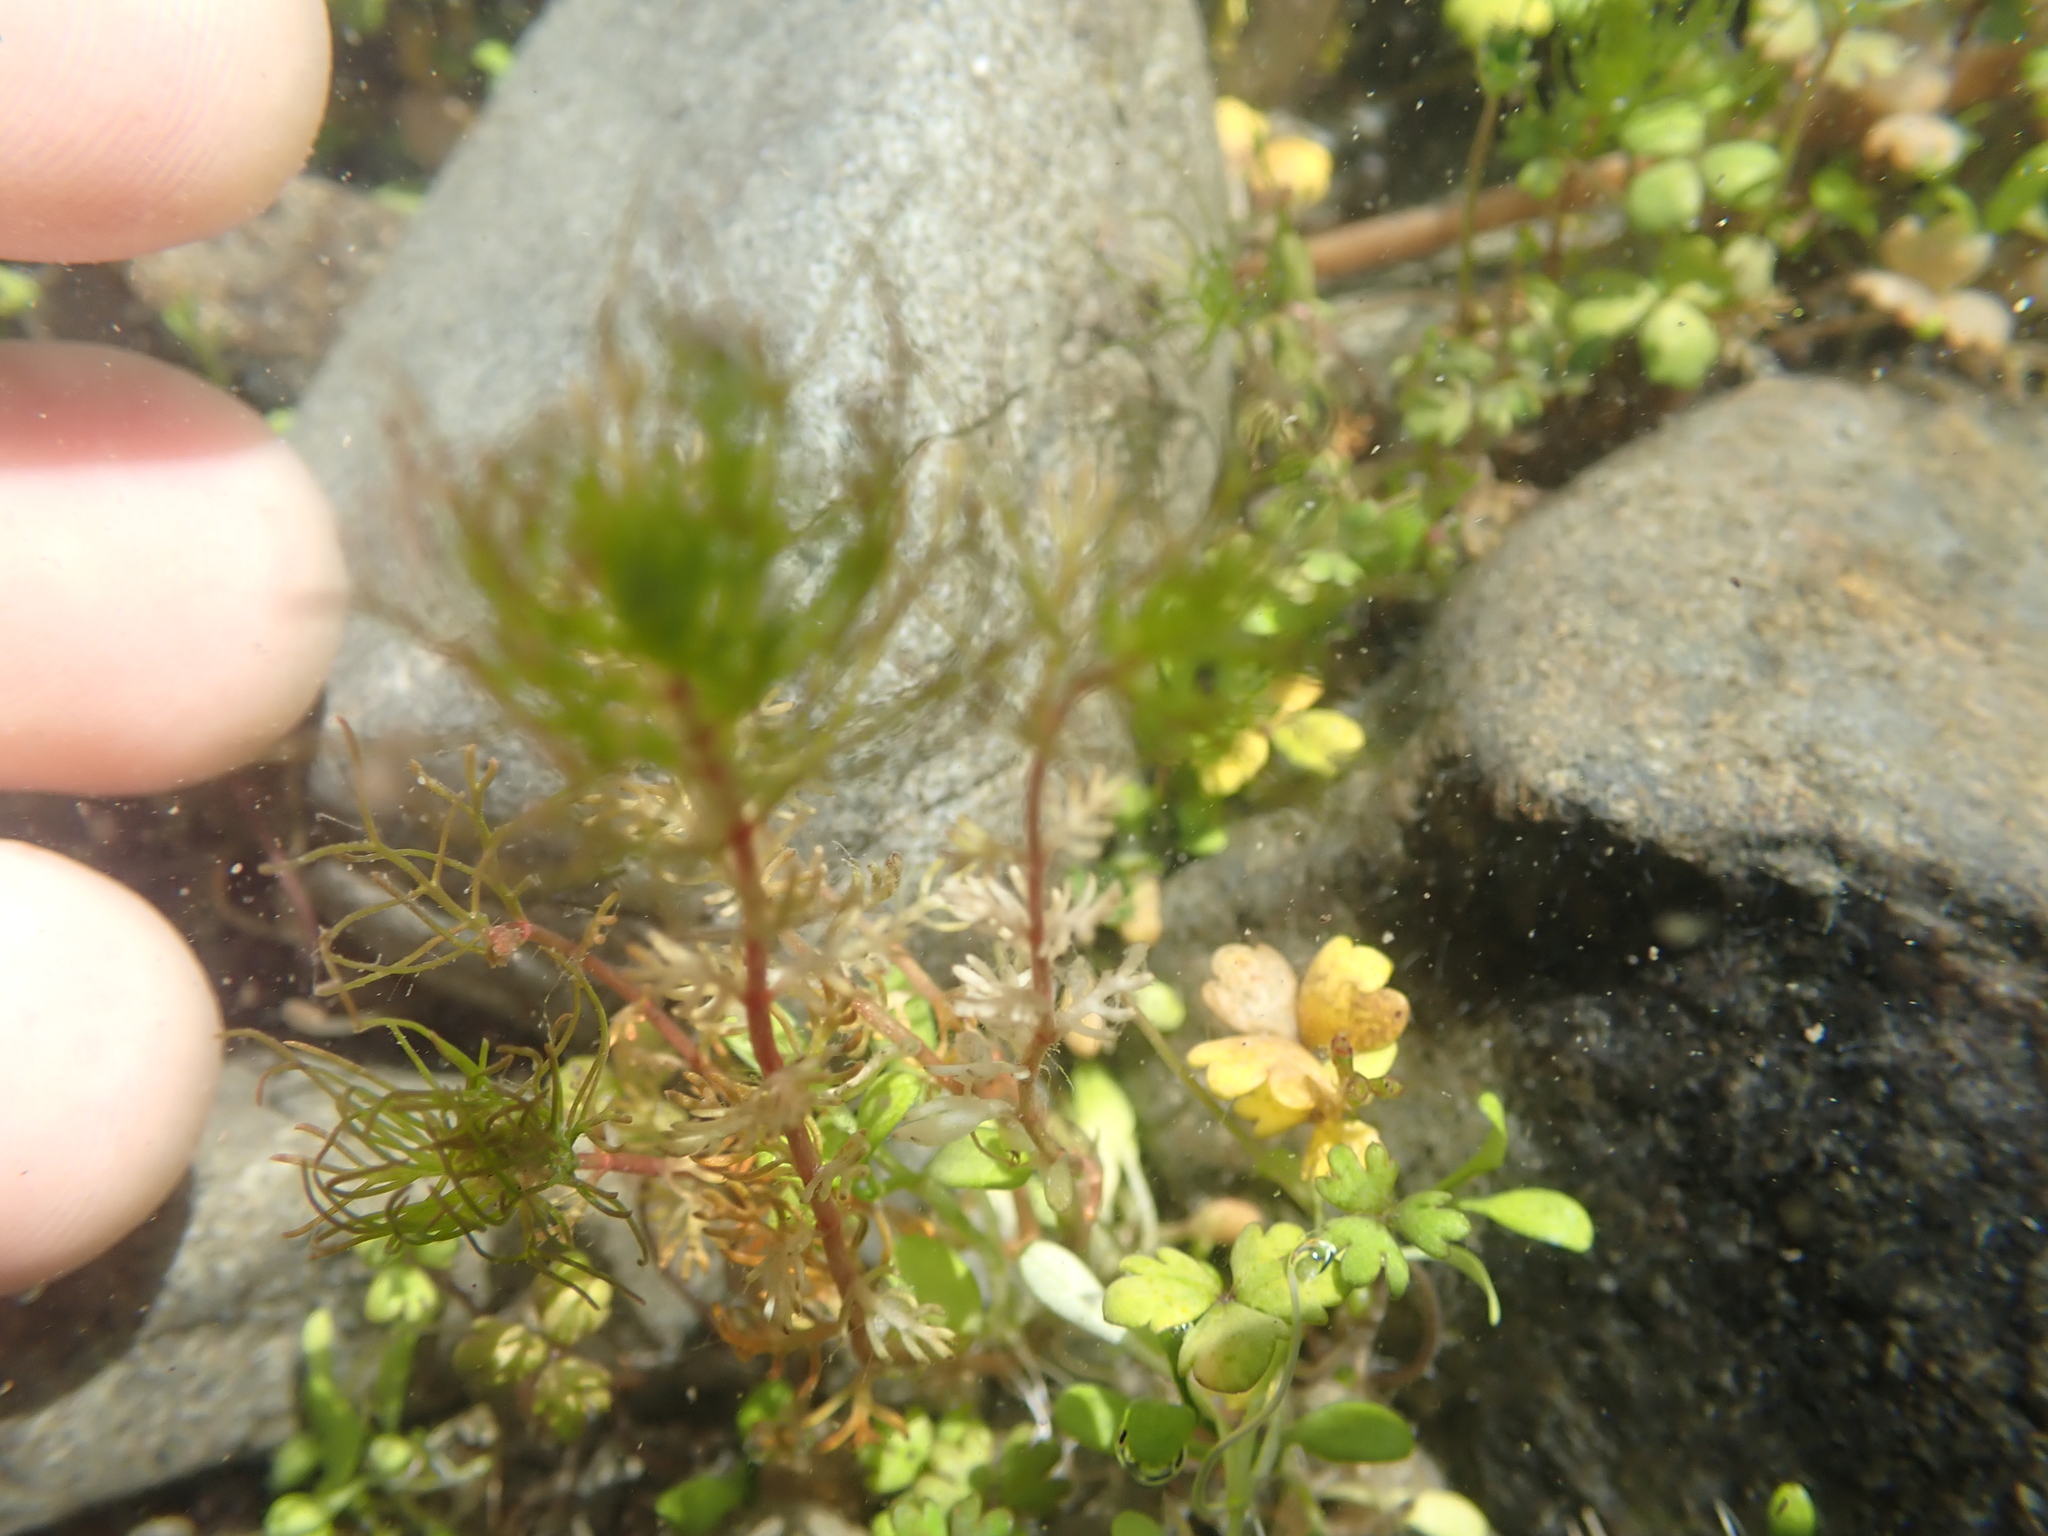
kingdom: Plantae
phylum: Tracheophyta
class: Magnoliopsida
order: Saxifragales
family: Haloragaceae
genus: Myriophyllum
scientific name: Myriophyllum propinquum
